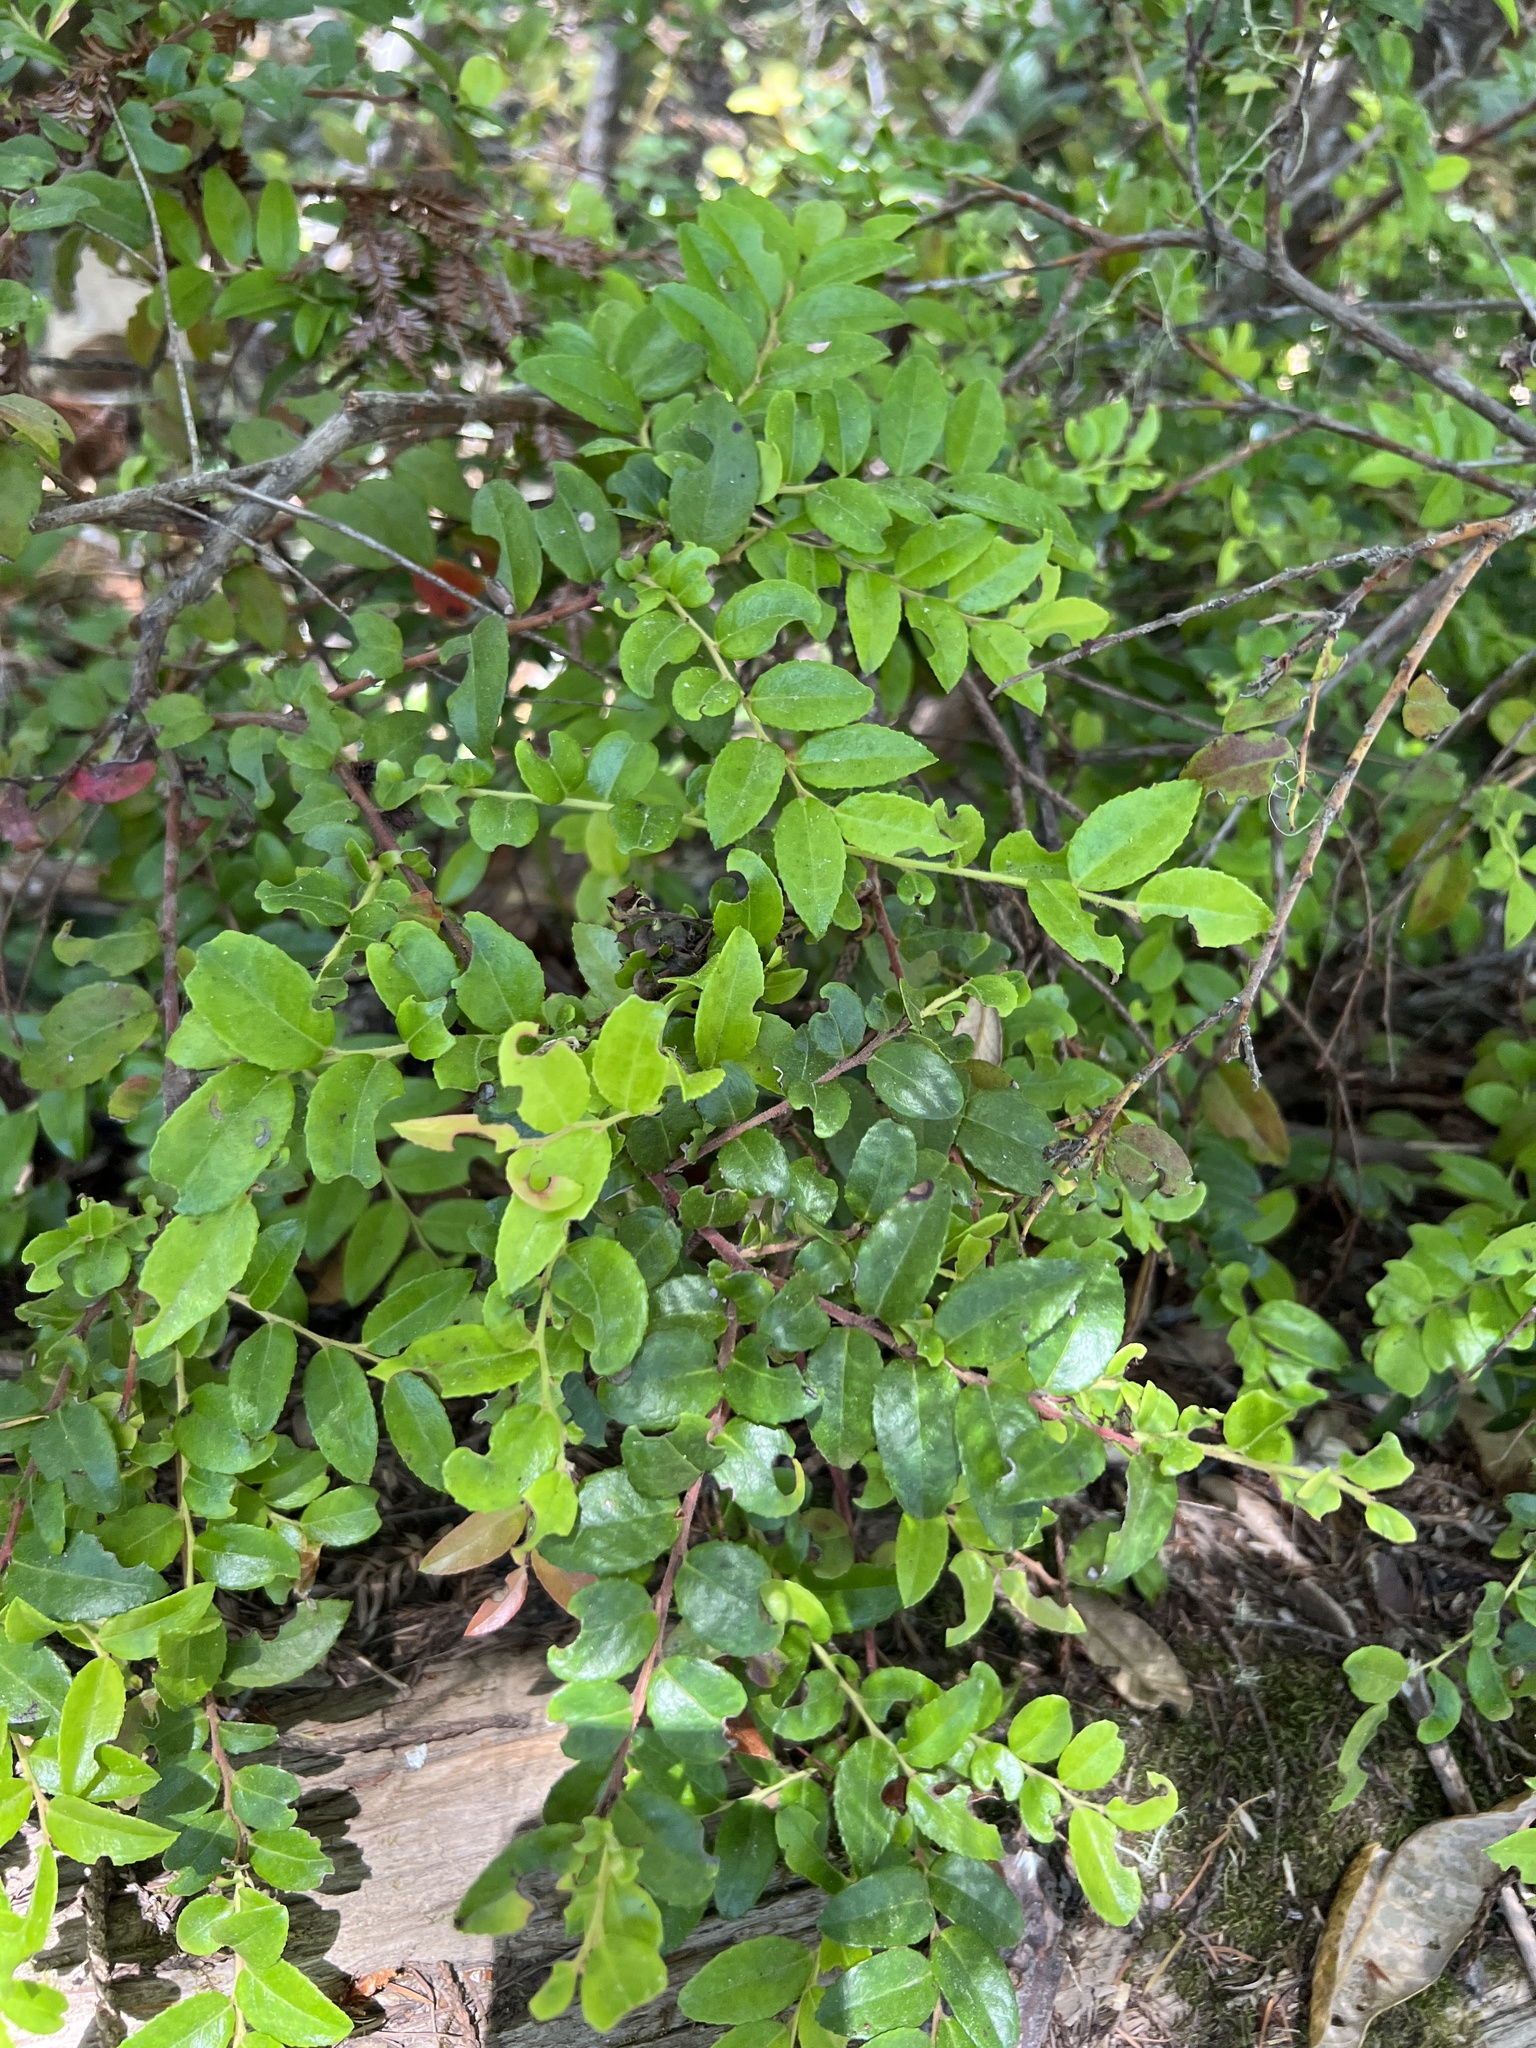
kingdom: Plantae
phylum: Tracheophyta
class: Magnoliopsida
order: Ericales
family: Ericaceae
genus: Vaccinium
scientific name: Vaccinium ovatum
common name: California-huckleberry
